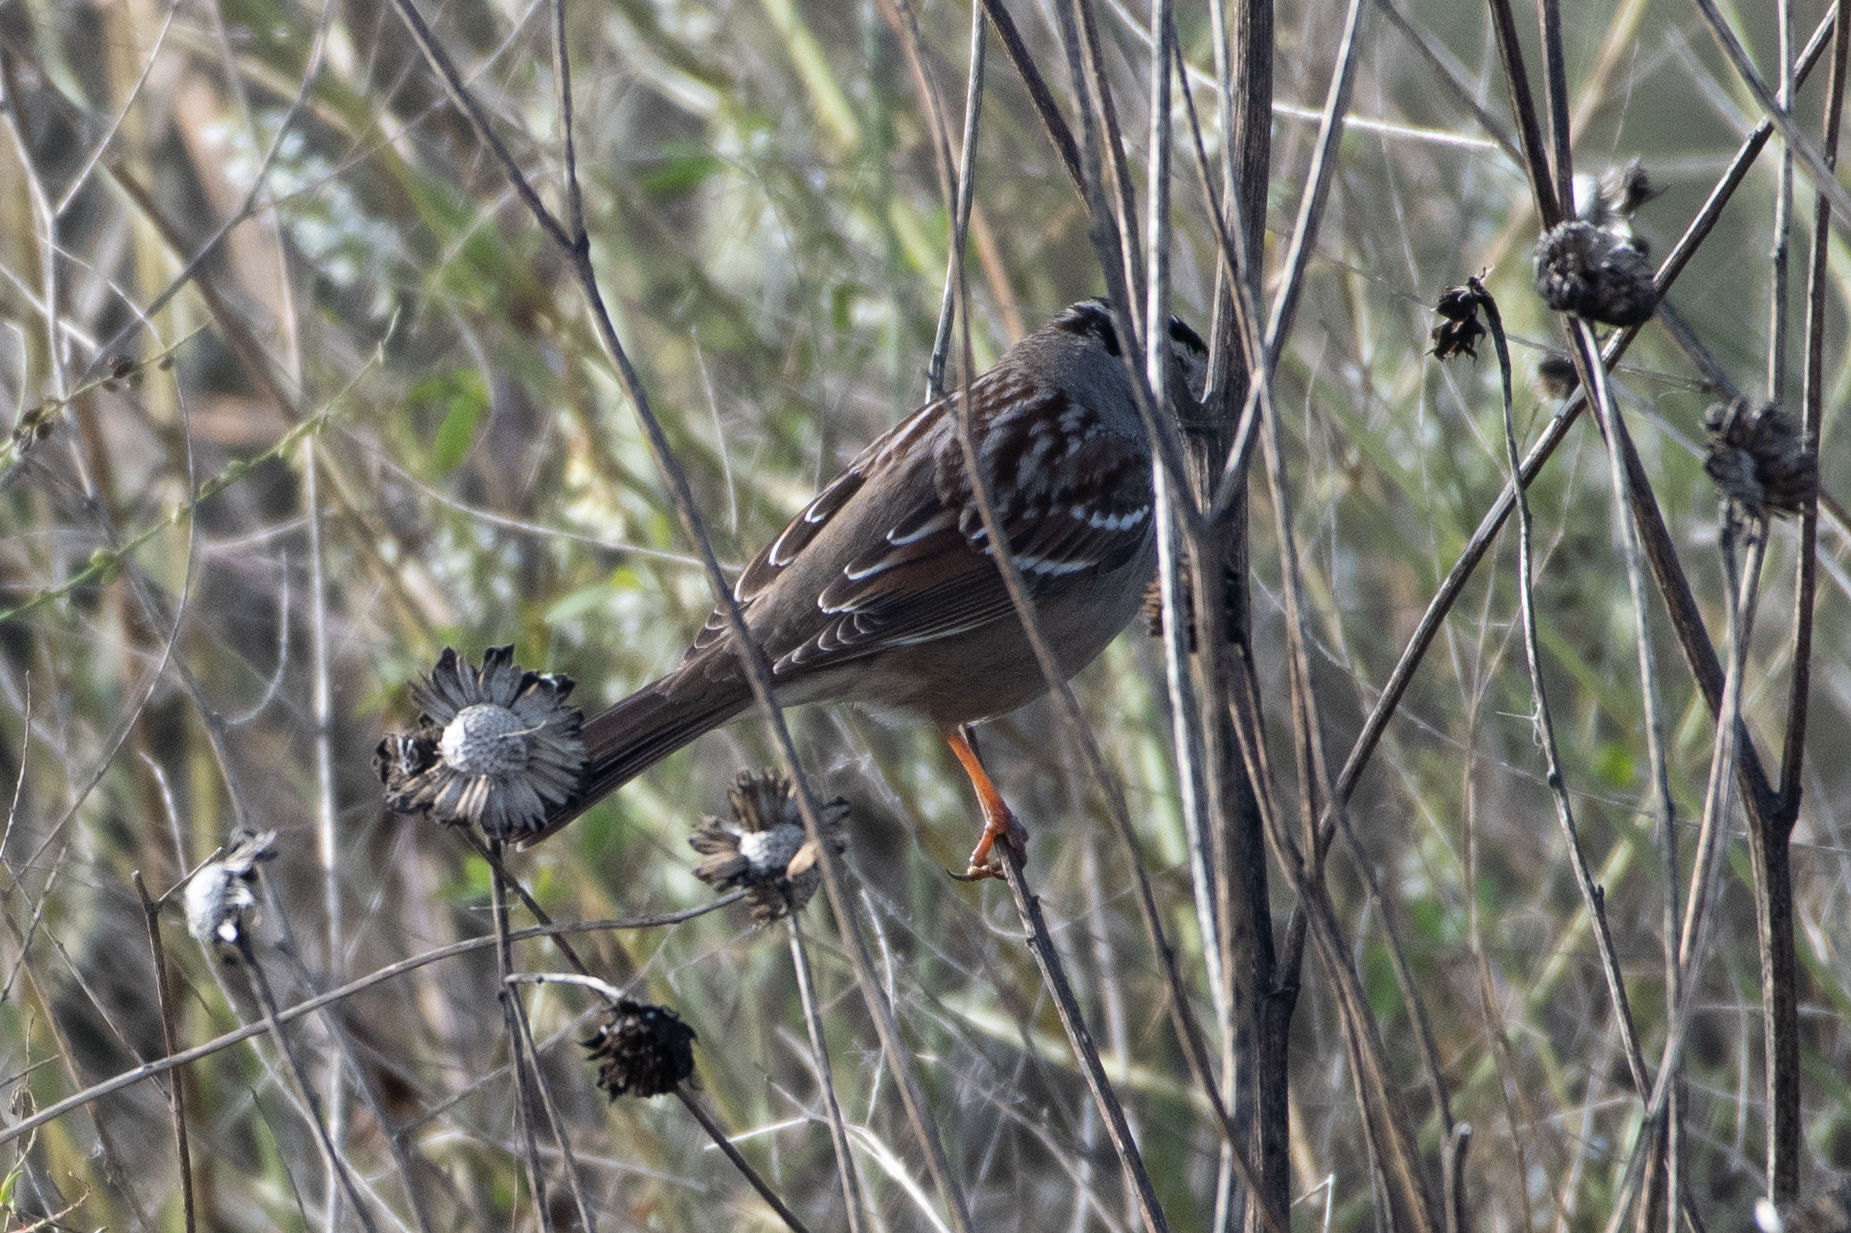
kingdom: Animalia
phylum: Chordata
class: Aves
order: Passeriformes
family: Passerellidae
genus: Zonotrichia
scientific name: Zonotrichia leucophrys
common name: White-crowned sparrow
